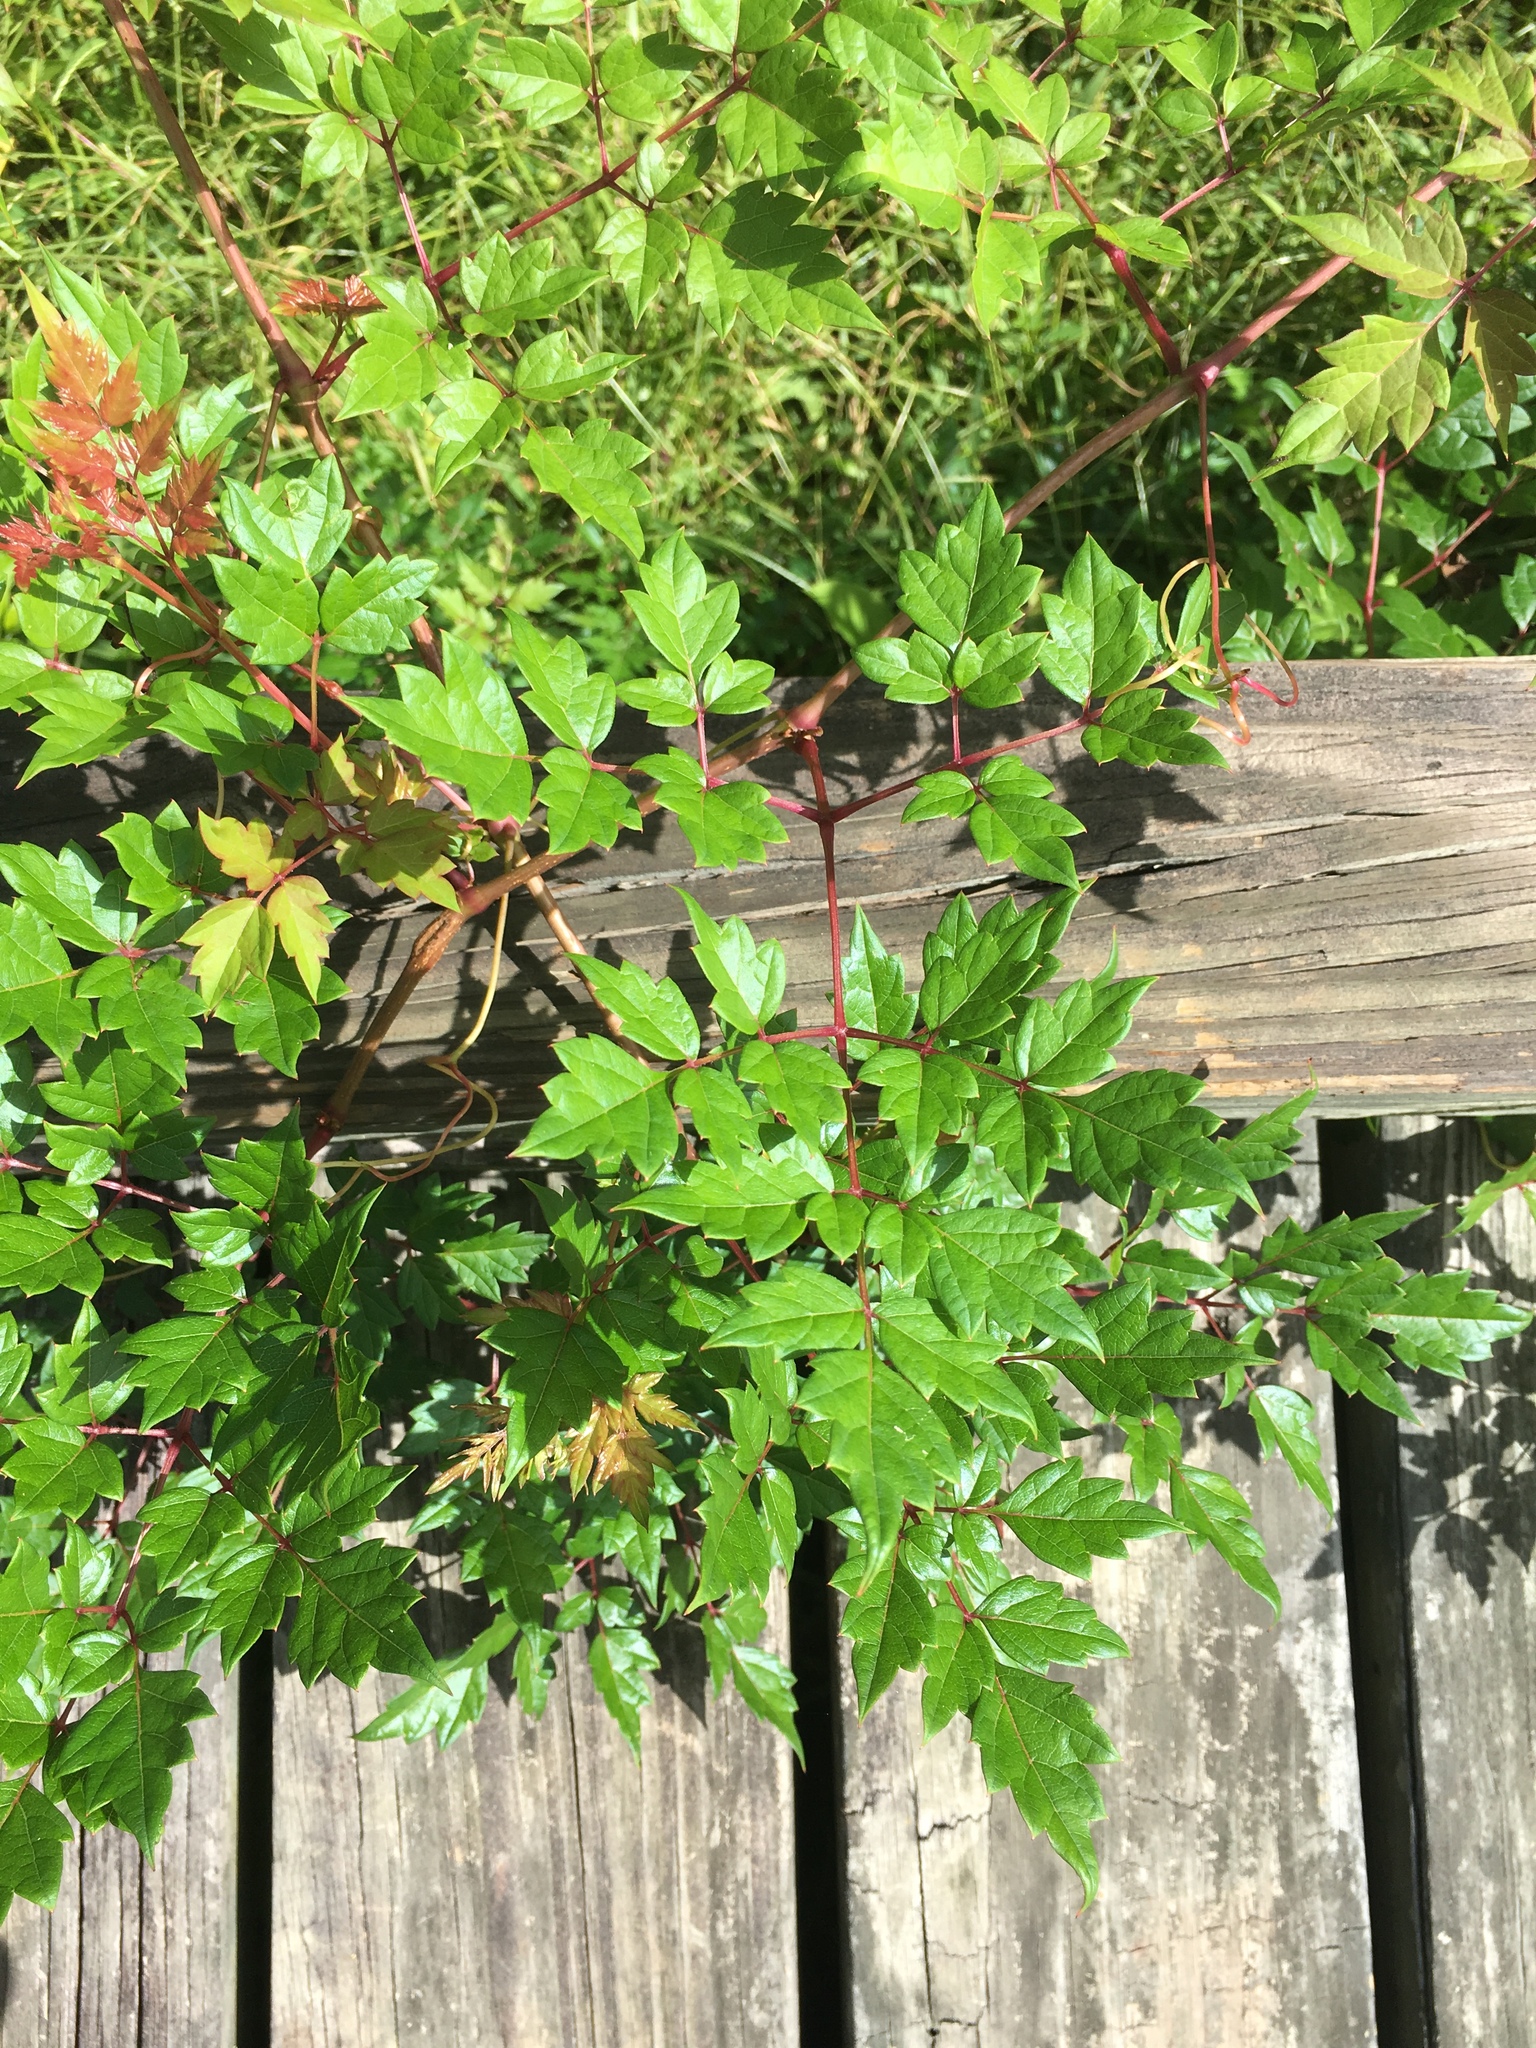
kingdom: Plantae
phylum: Tracheophyta
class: Magnoliopsida
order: Vitales
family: Vitaceae
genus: Nekemias
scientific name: Nekemias arborea
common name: Peppervine
